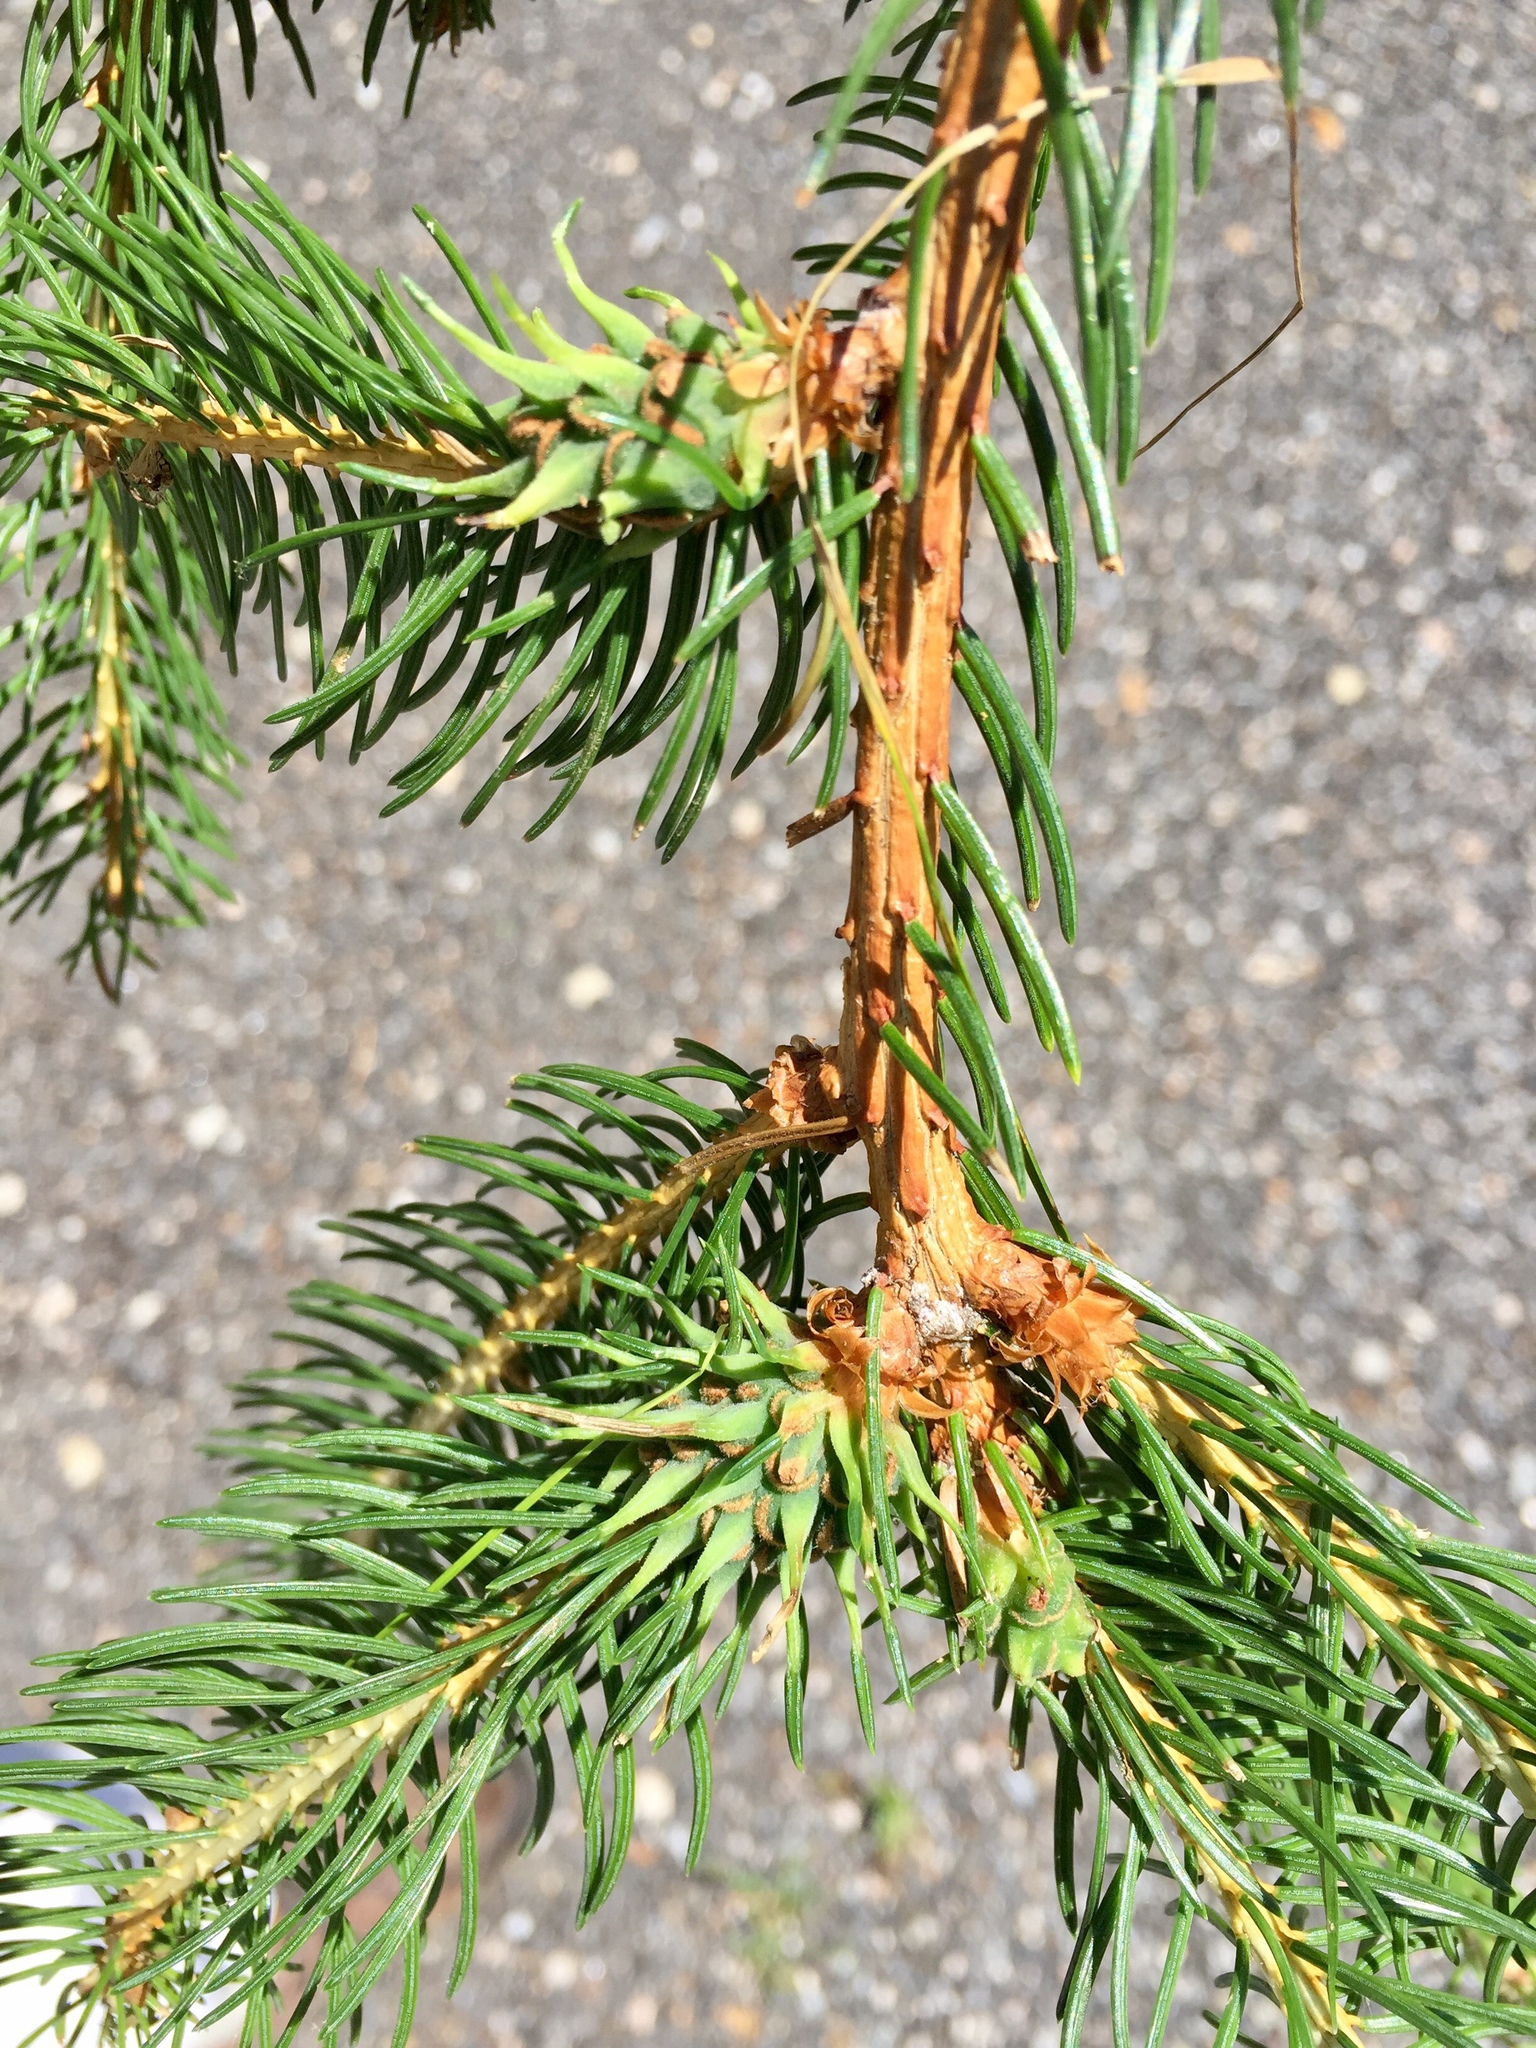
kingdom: Animalia
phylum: Arthropoda
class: Insecta
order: Hemiptera
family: Adelgidae
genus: Adelges
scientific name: Adelges abietis
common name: Eastern spruce gall adelgid
